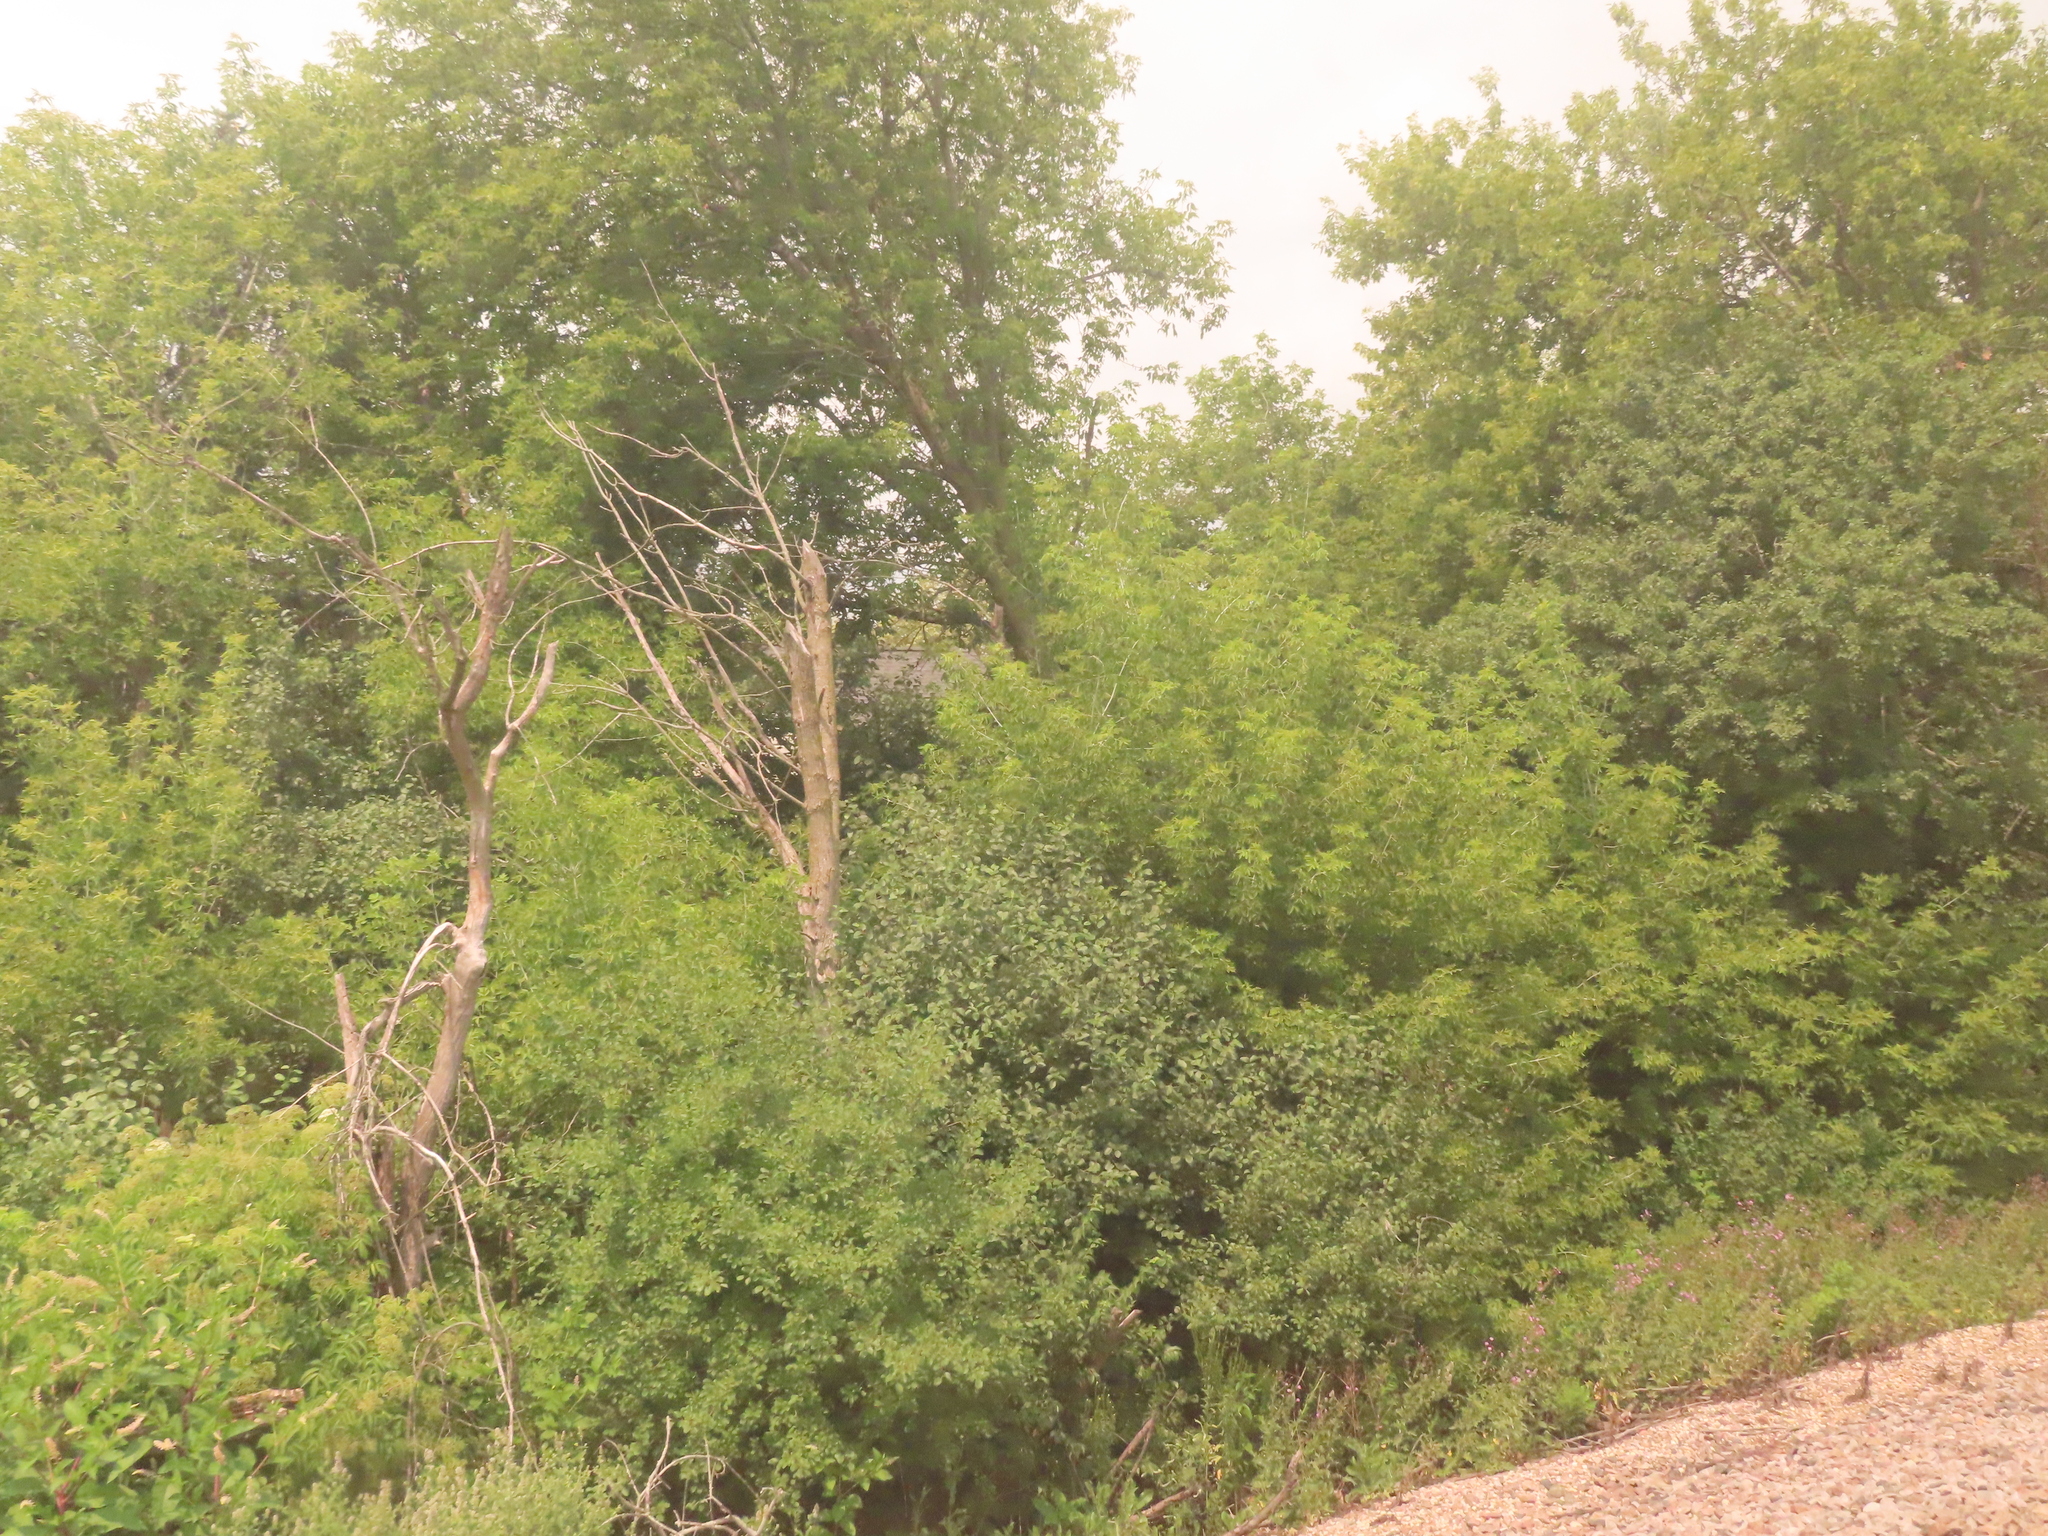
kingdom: Plantae
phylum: Tracheophyta
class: Magnoliopsida
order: Sapindales
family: Sapindaceae
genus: Acer
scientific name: Acer negundo
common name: Ashleaf maple
